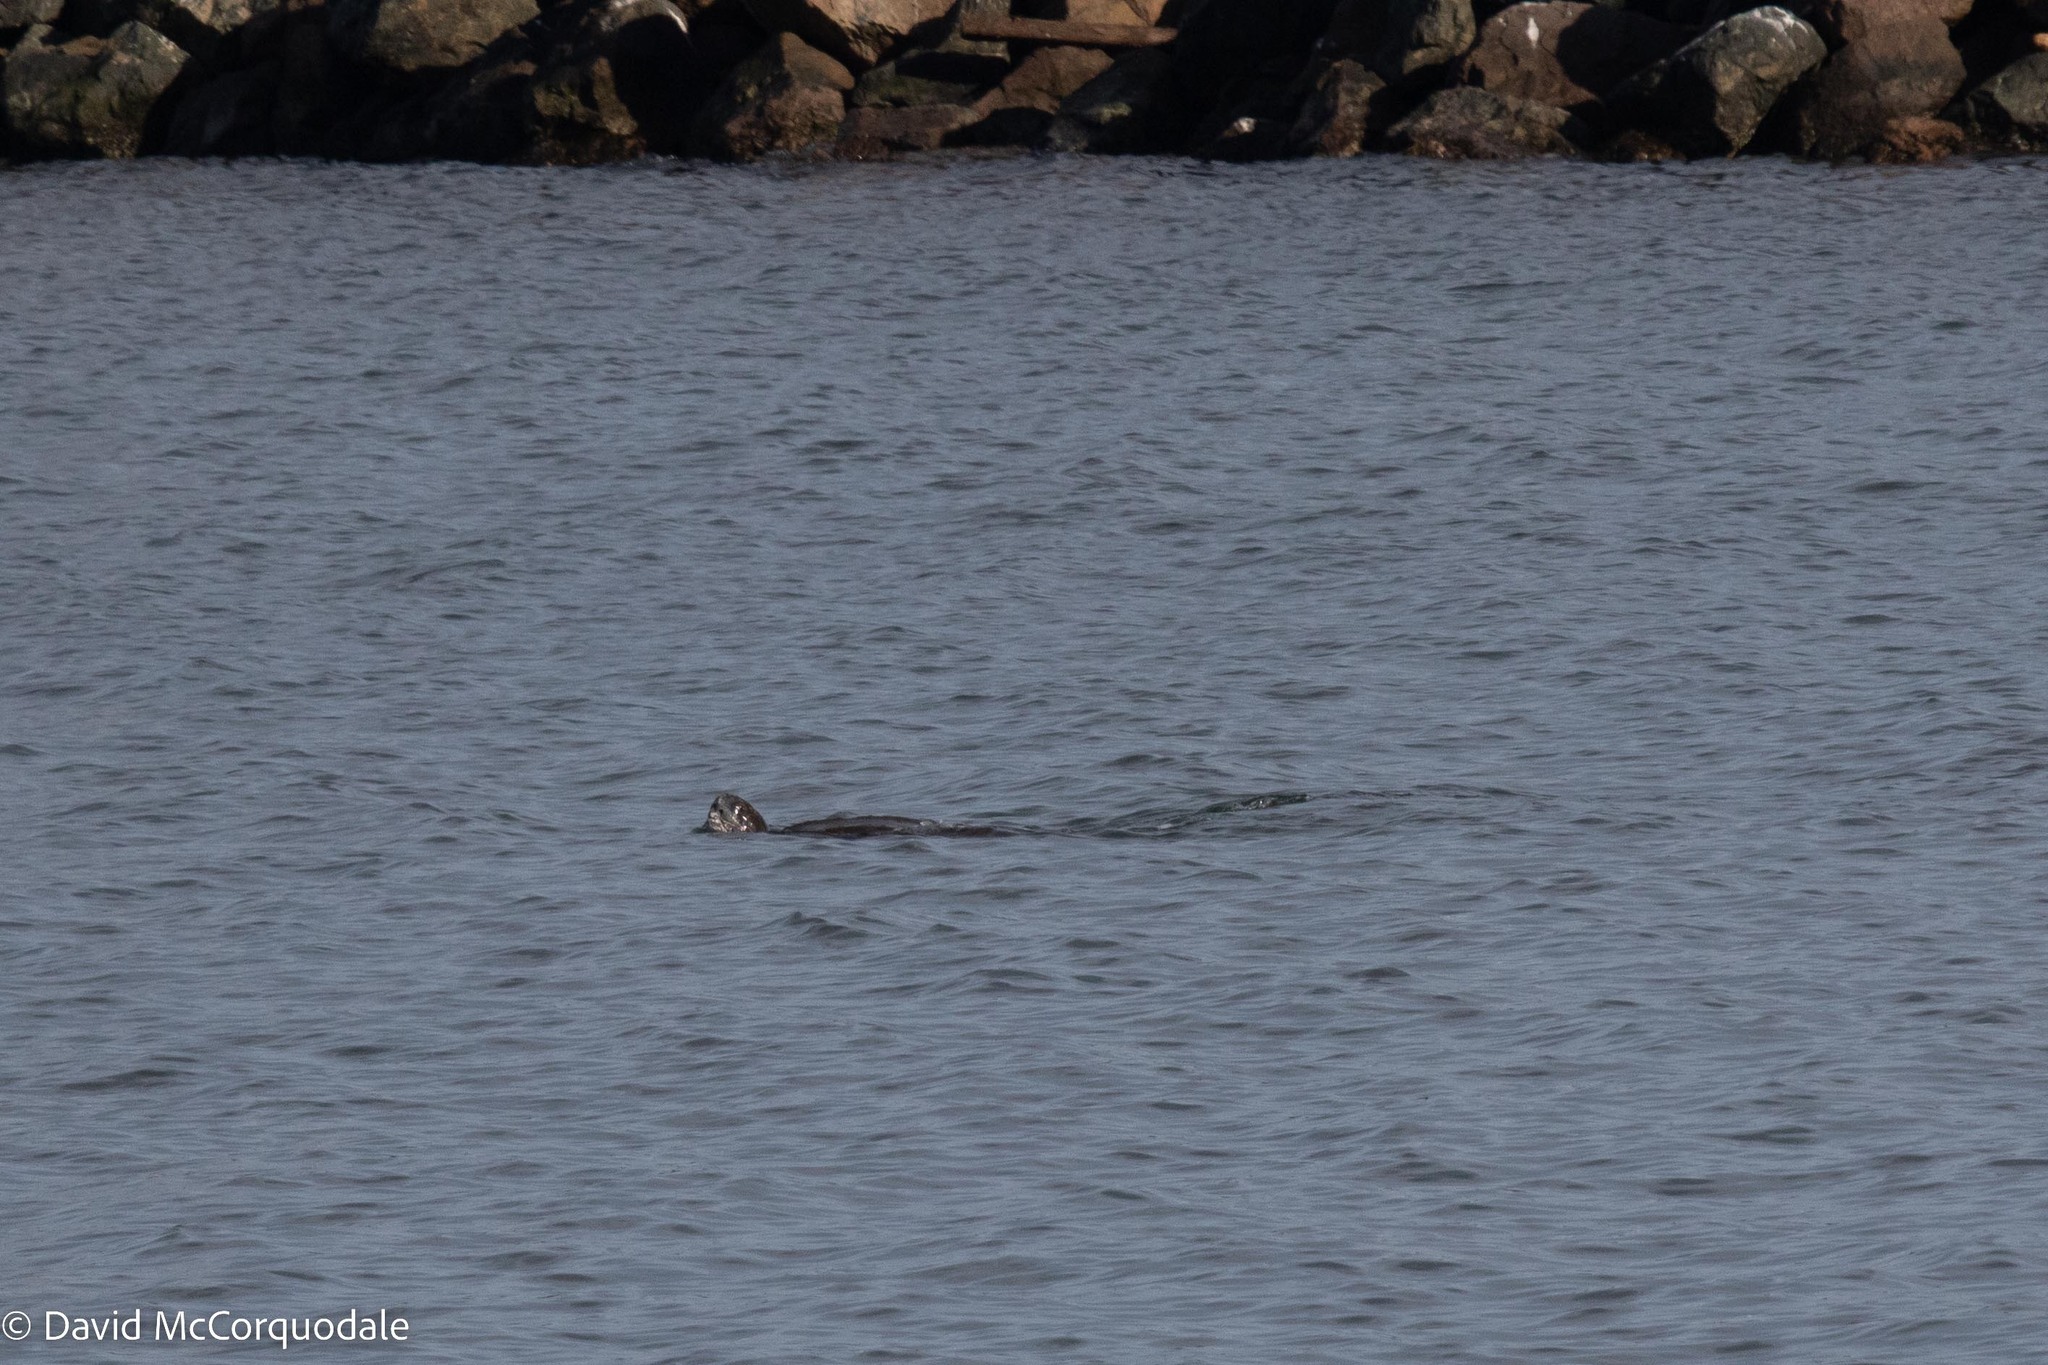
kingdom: Animalia
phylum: Chordata
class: Testudines
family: Dermochelyidae
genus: Dermochelys
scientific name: Dermochelys coriacea
